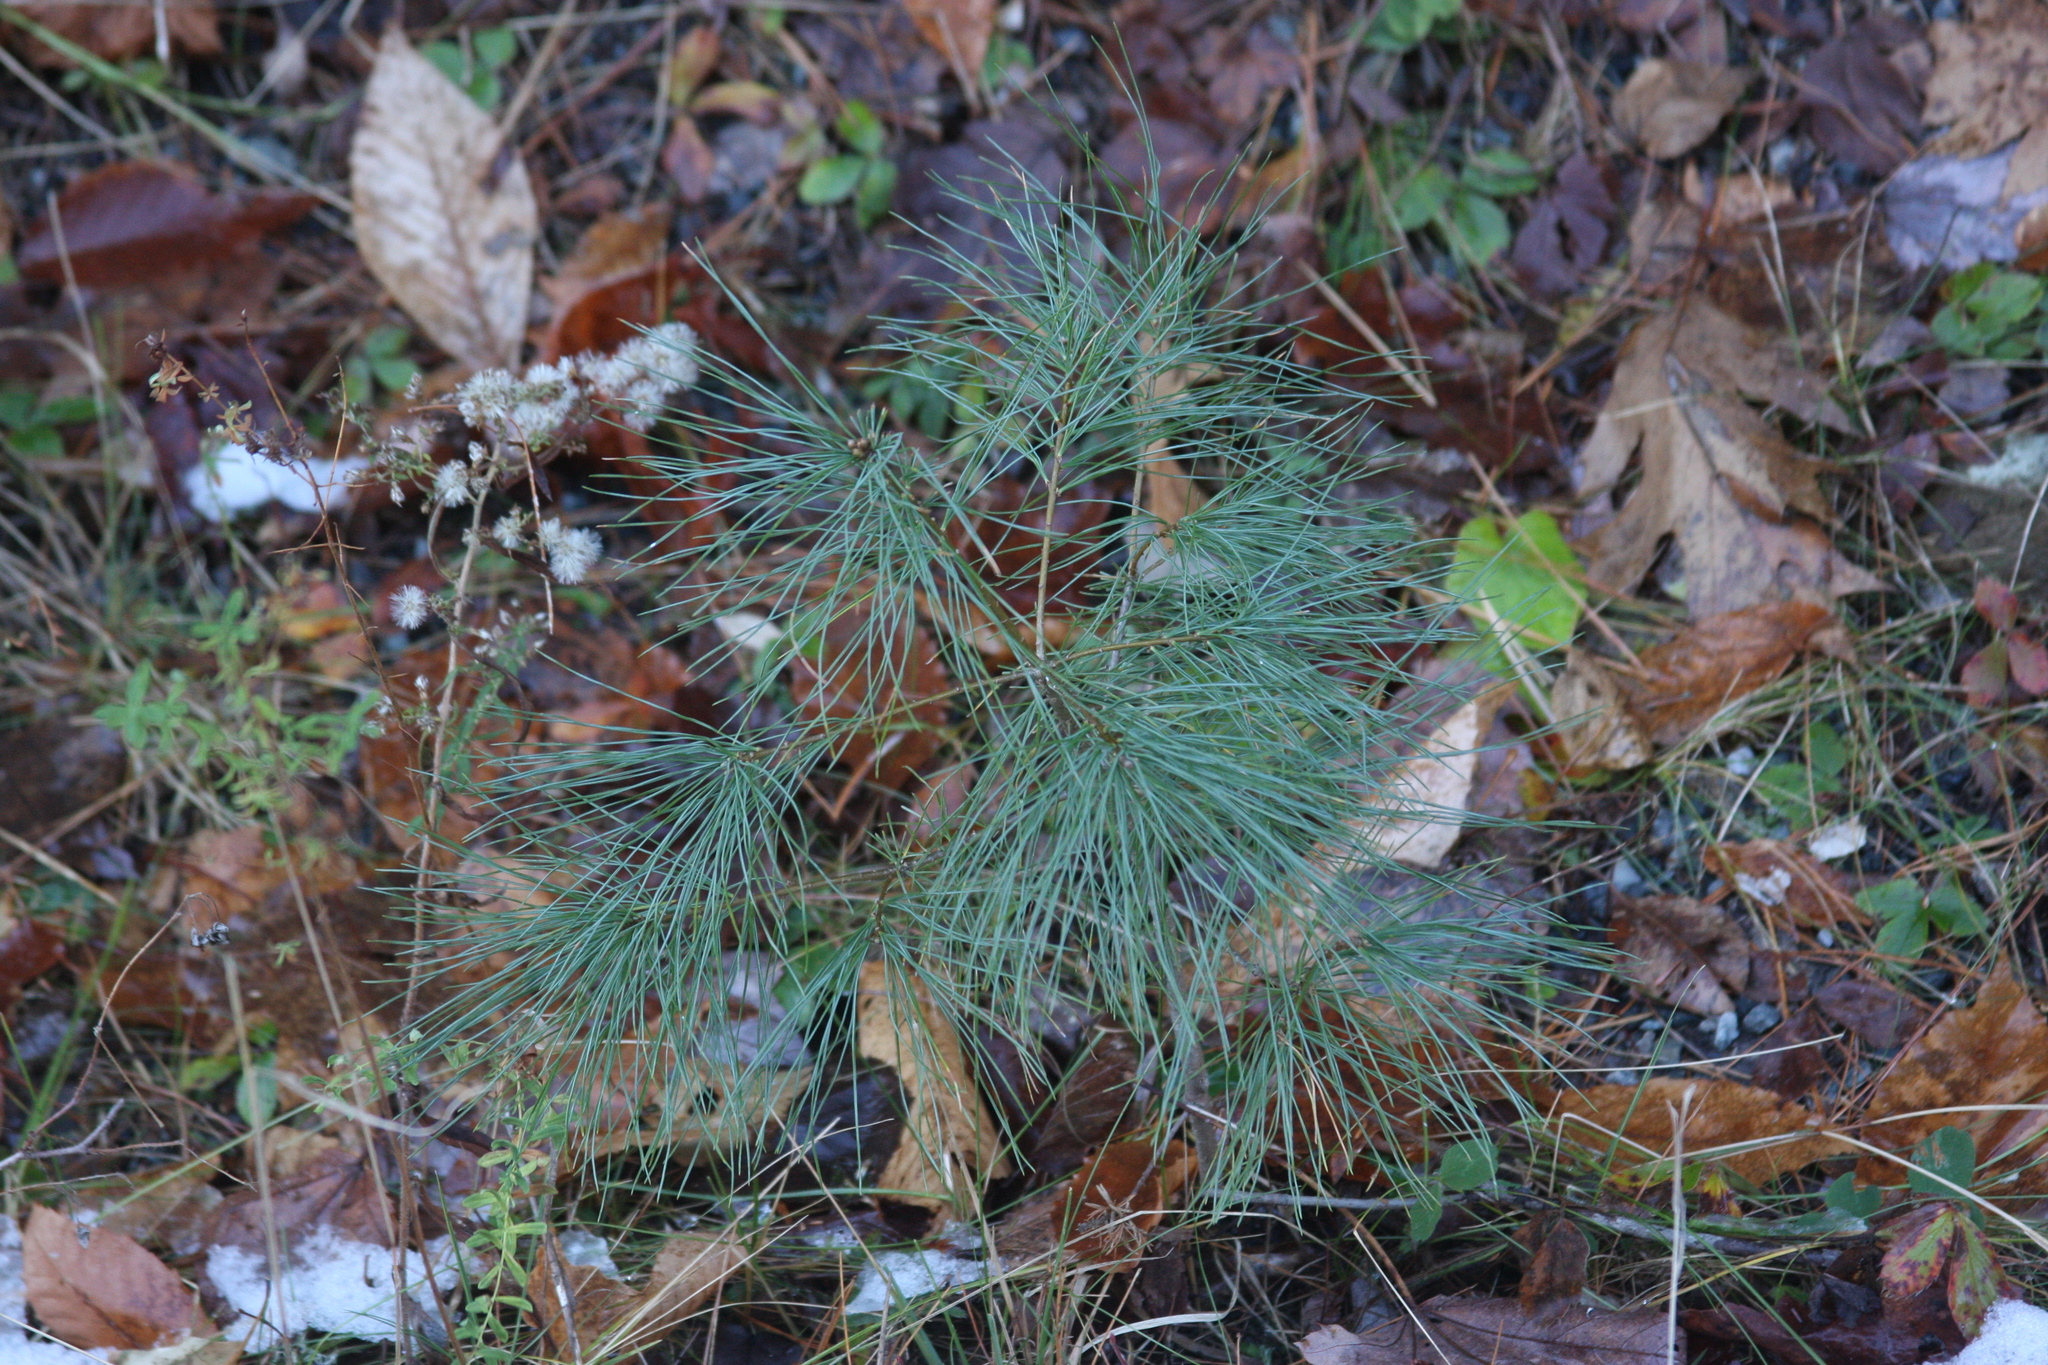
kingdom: Plantae
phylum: Tracheophyta
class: Pinopsida
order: Pinales
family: Pinaceae
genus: Pinus
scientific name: Pinus strobus
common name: Weymouth pine
